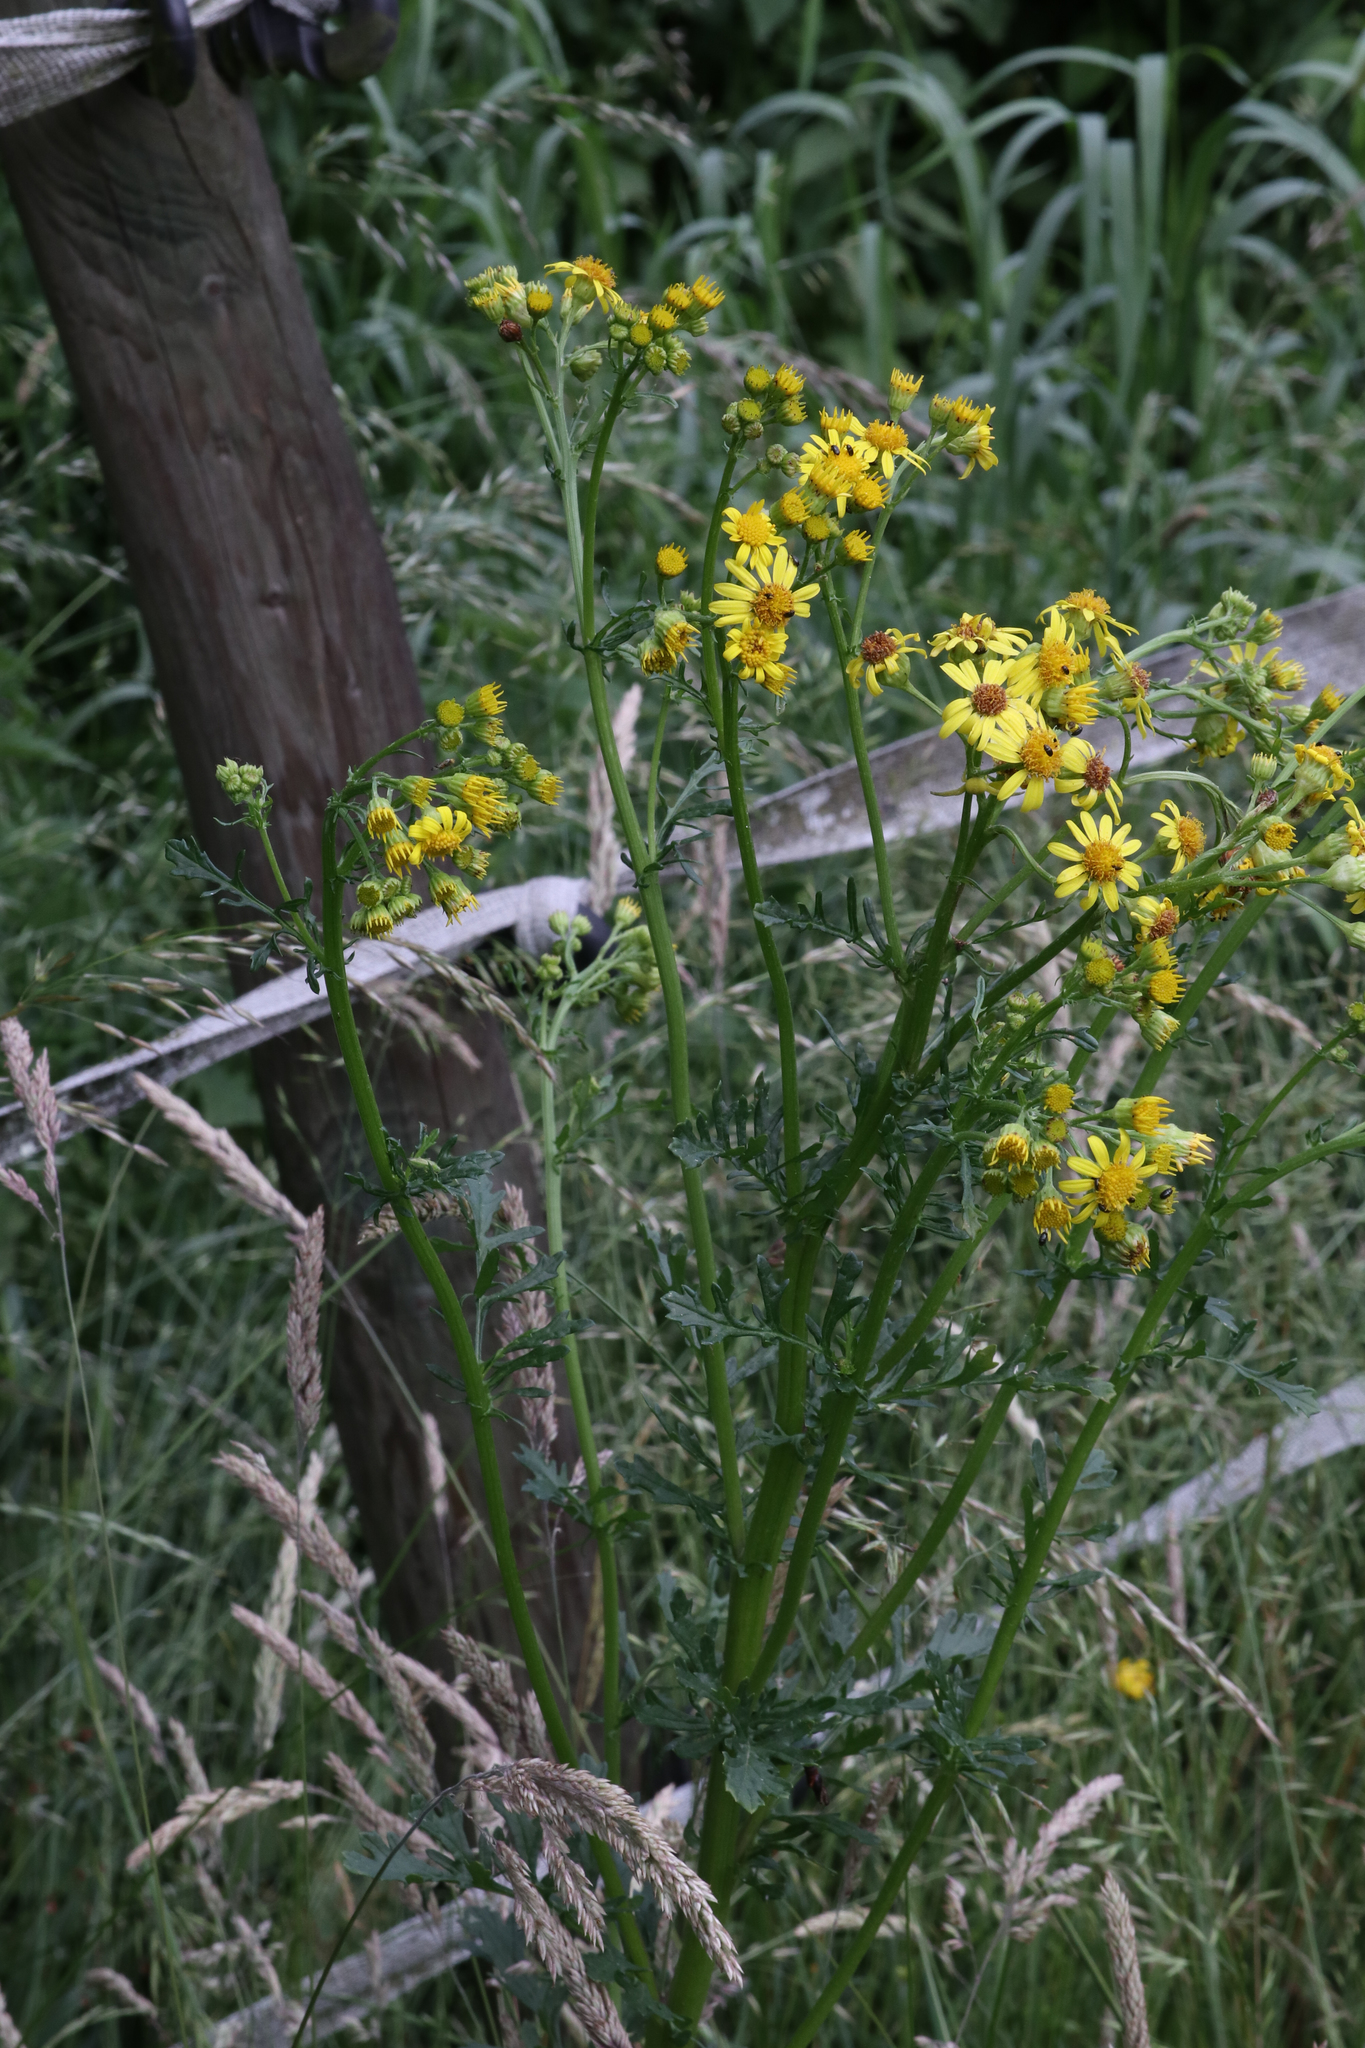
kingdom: Plantae
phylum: Tracheophyta
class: Magnoliopsida
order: Asterales
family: Asteraceae
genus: Jacobaea
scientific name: Jacobaea vulgaris
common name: Stinking willie
